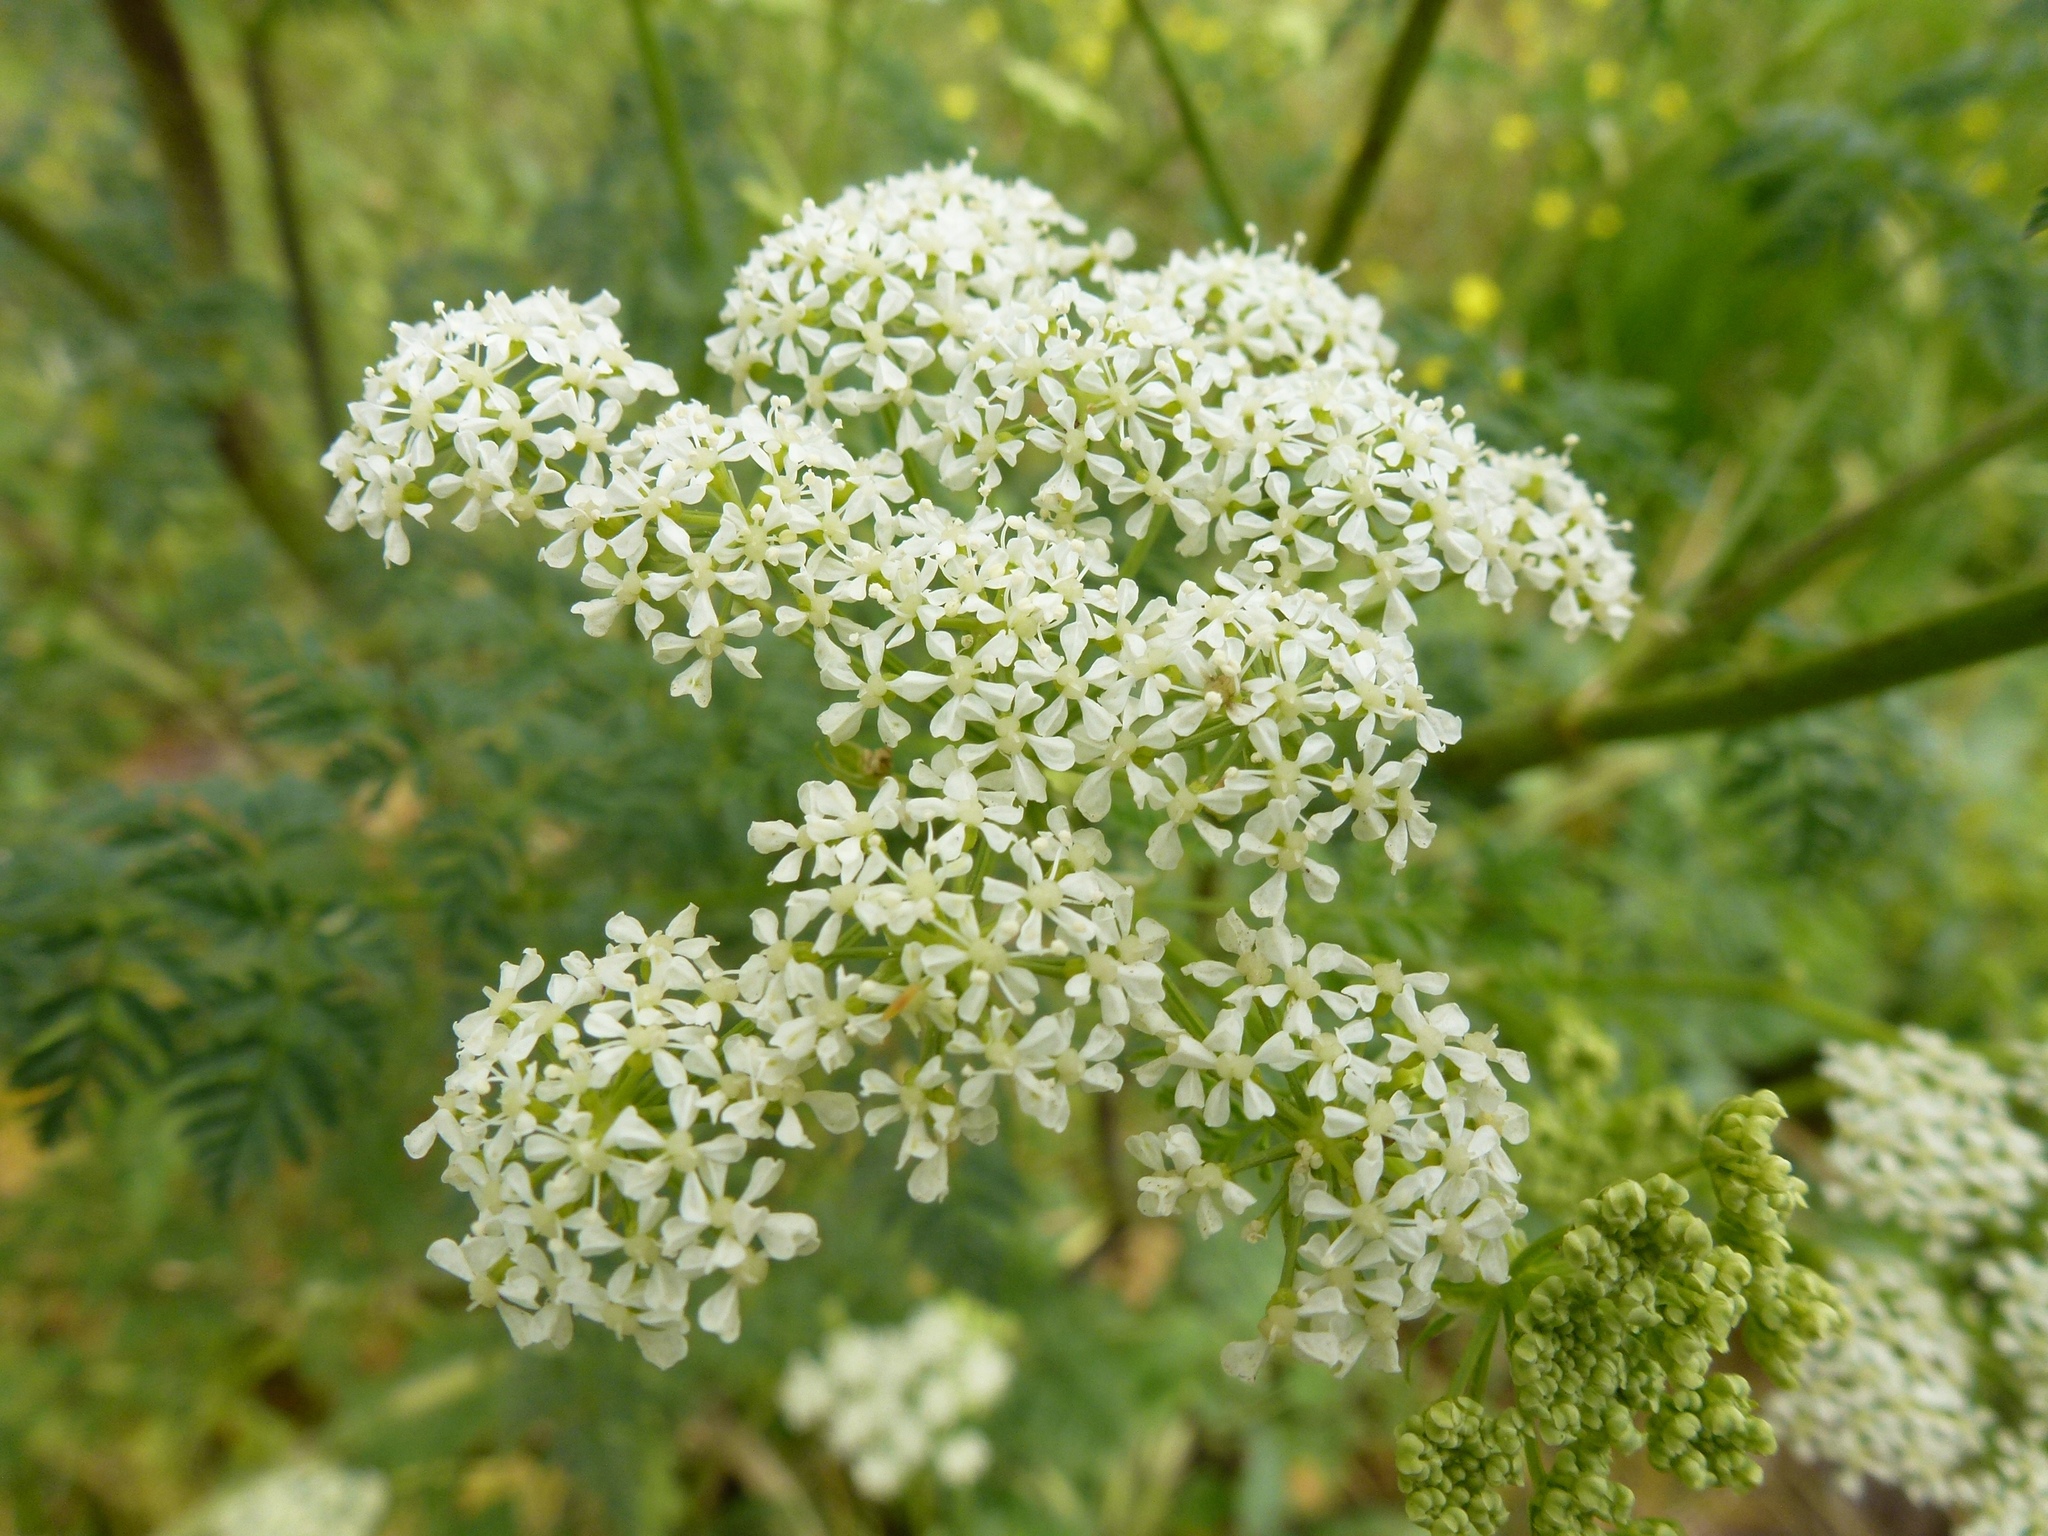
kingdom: Plantae
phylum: Tracheophyta
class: Magnoliopsida
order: Apiales
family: Apiaceae
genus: Conium
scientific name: Conium maculatum
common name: Hemlock
